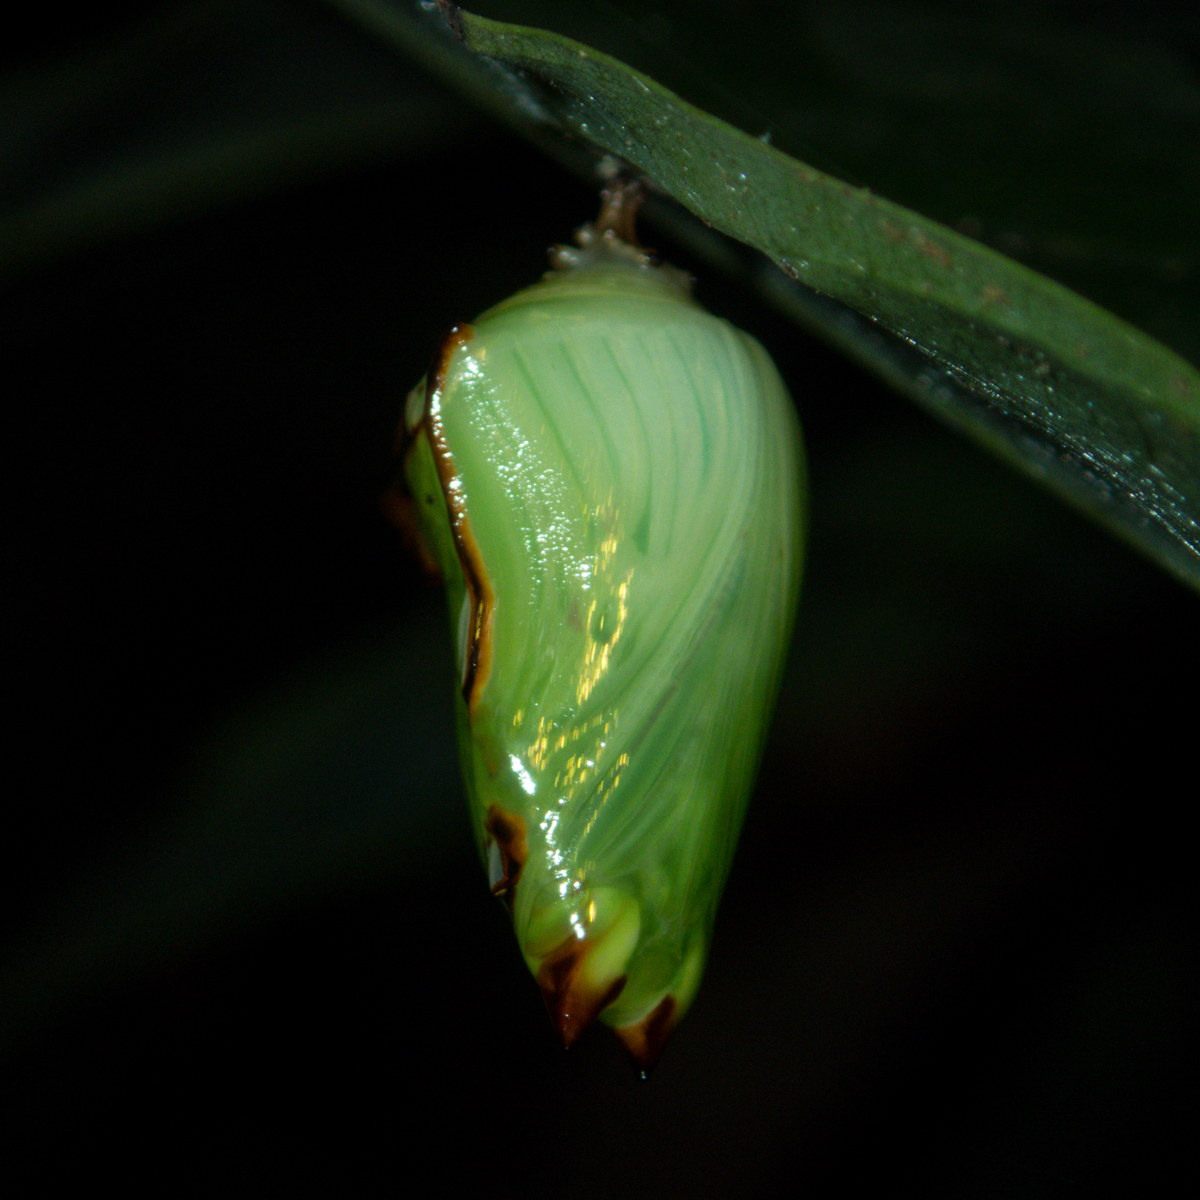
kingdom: Animalia
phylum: Arthropoda
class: Insecta
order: Lepidoptera
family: Nymphalidae
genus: Euthalia
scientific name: Euthalia anosia
